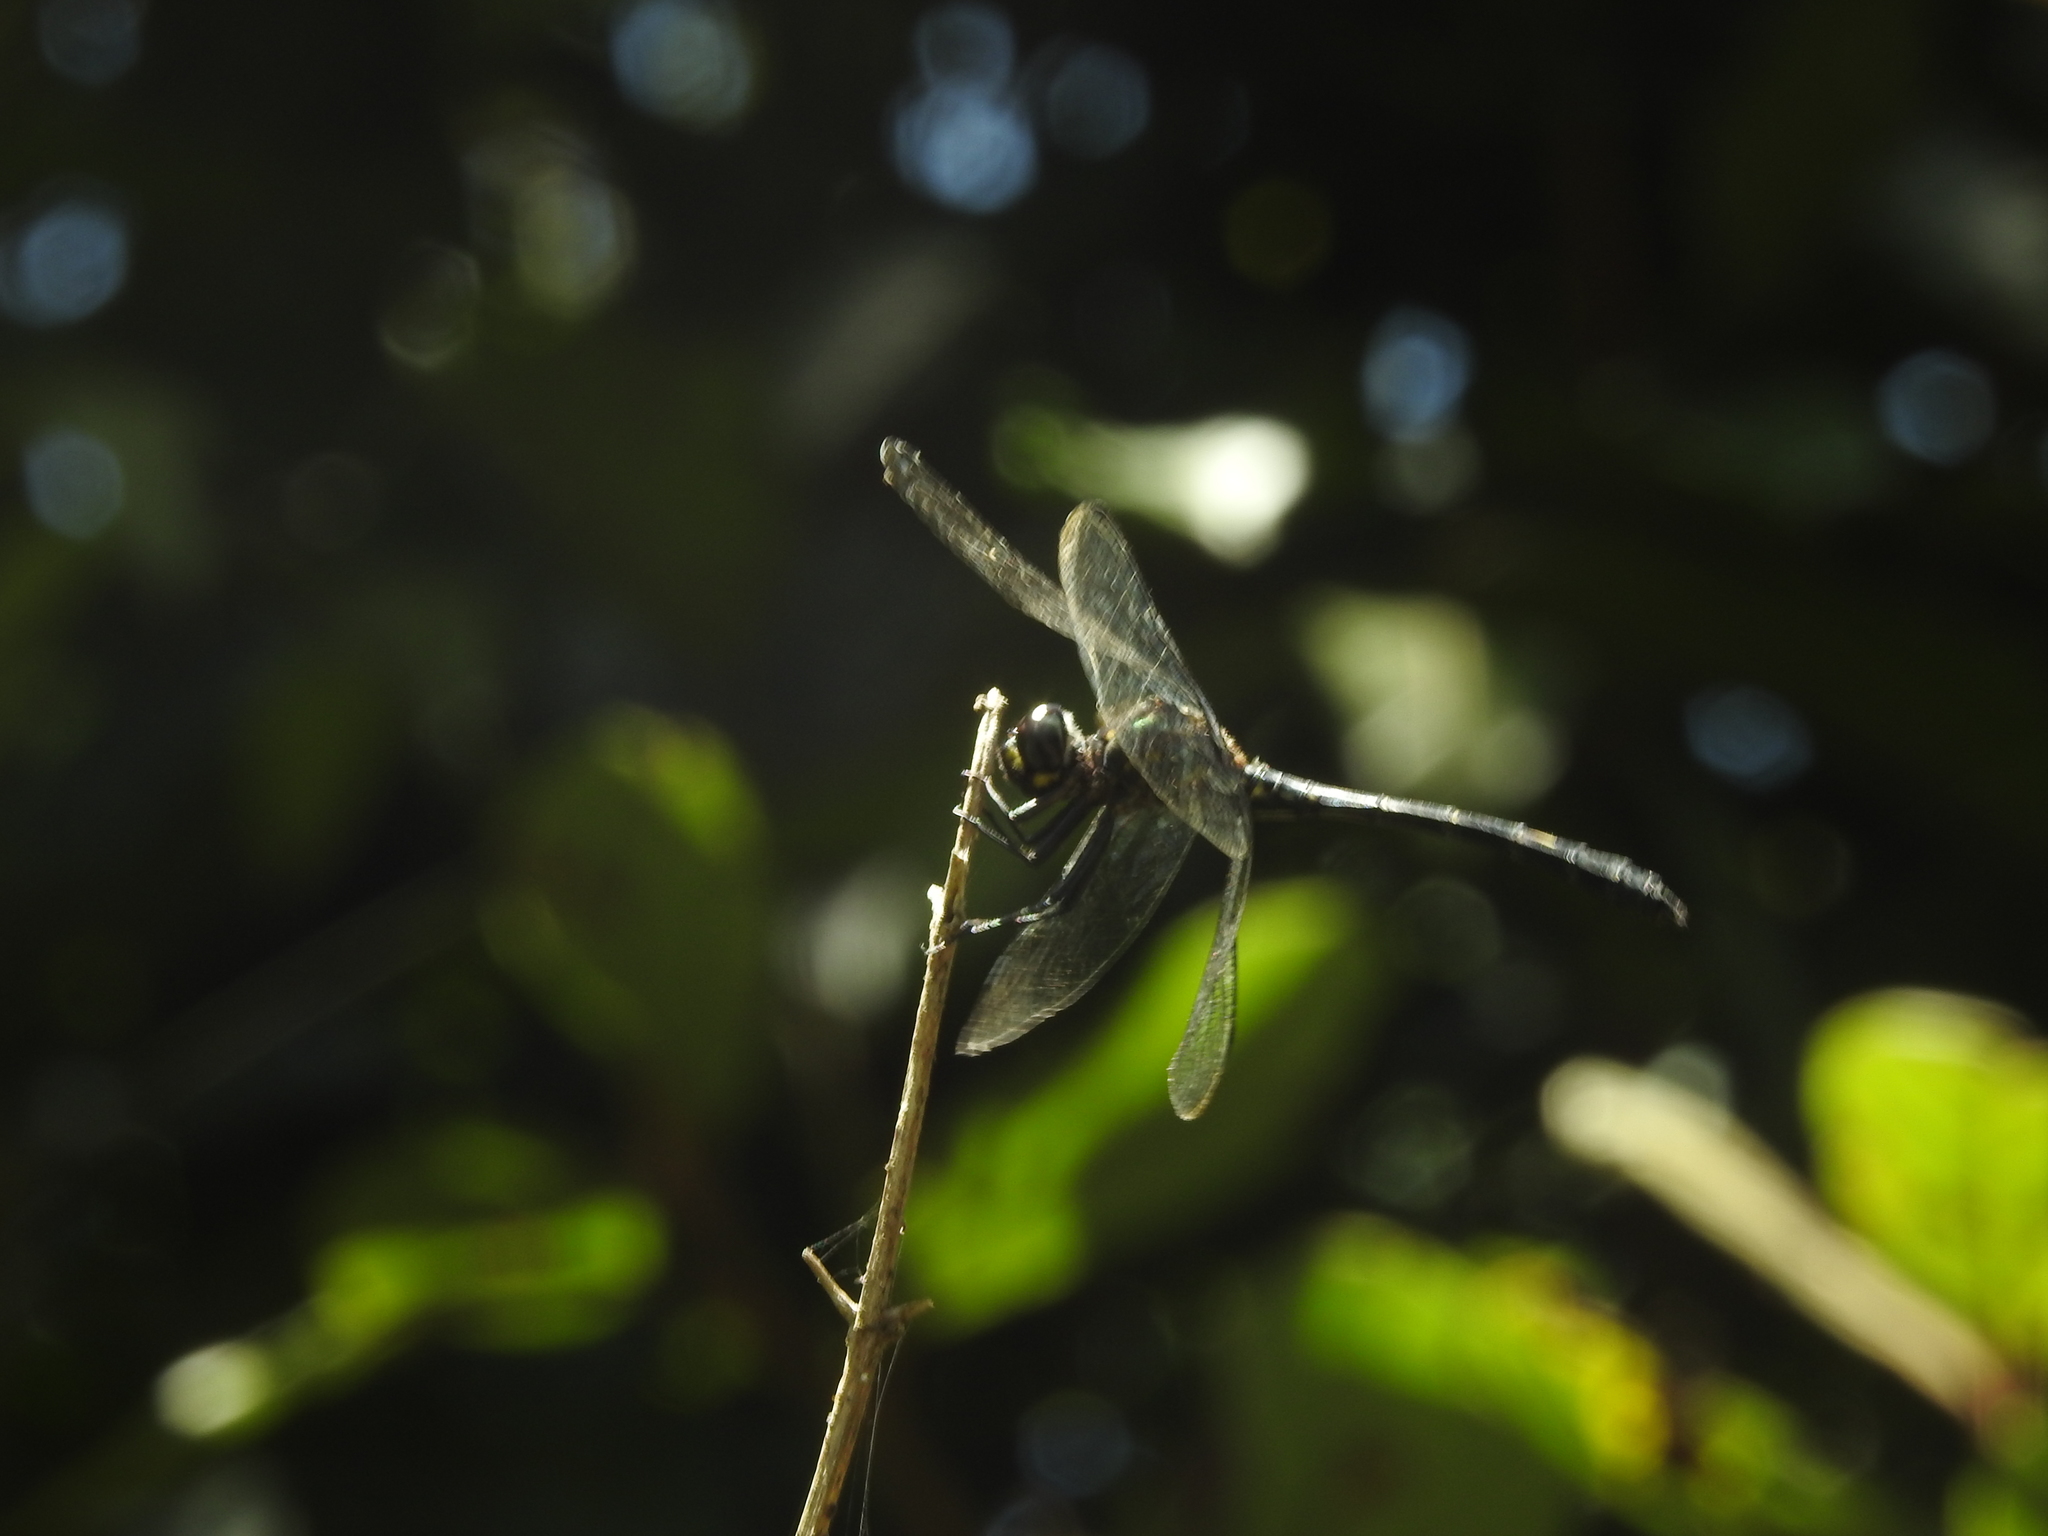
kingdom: Animalia
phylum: Arthropoda
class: Insecta
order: Odonata
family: Libellulidae
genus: Zygonyx
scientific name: Zygonyx iris
